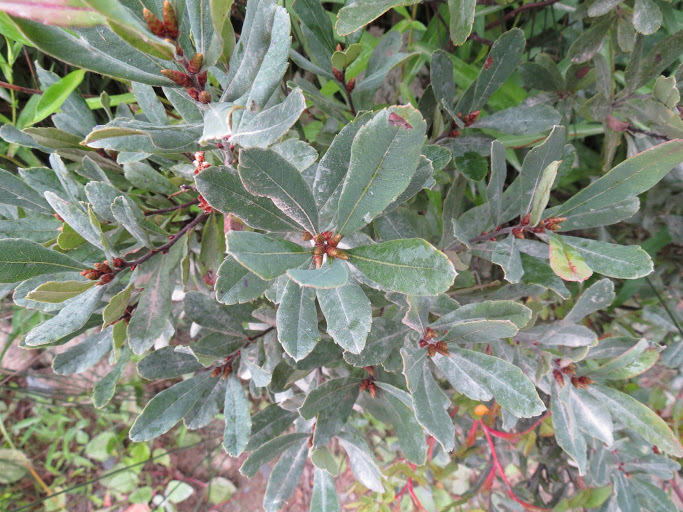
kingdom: Plantae
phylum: Tracheophyta
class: Magnoliopsida
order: Fagales
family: Myricaceae
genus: Myrica
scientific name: Myrica gale
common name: Sweet gale
